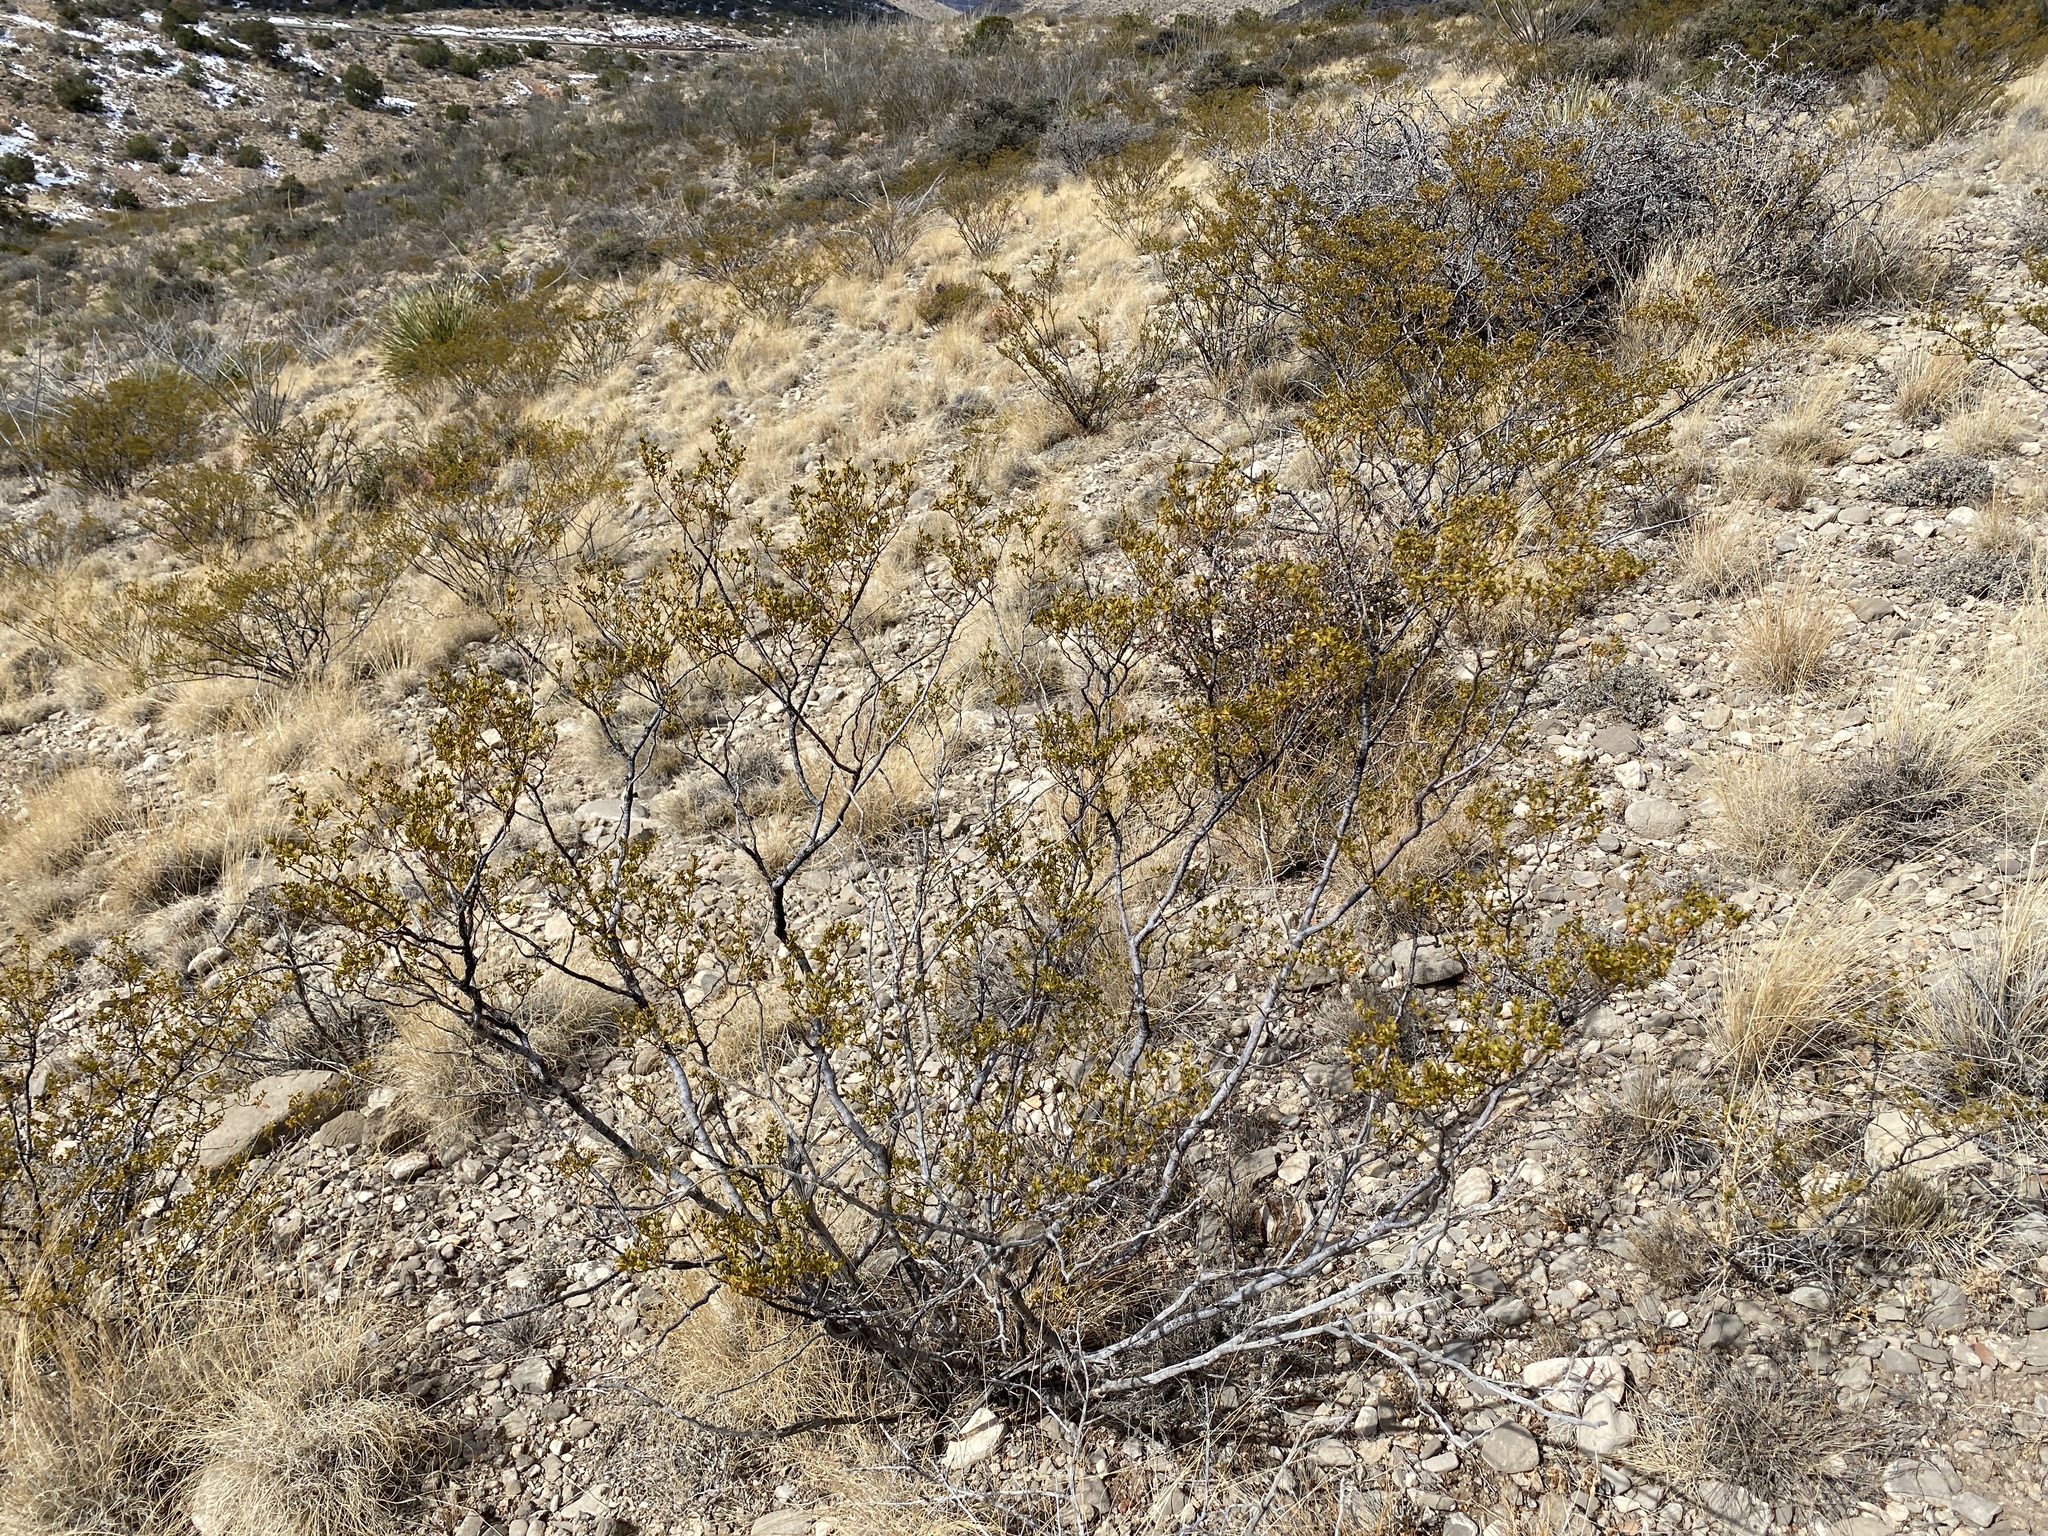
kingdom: Plantae
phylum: Tracheophyta
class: Magnoliopsida
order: Zygophyllales
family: Zygophyllaceae
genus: Larrea
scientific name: Larrea tridentata
